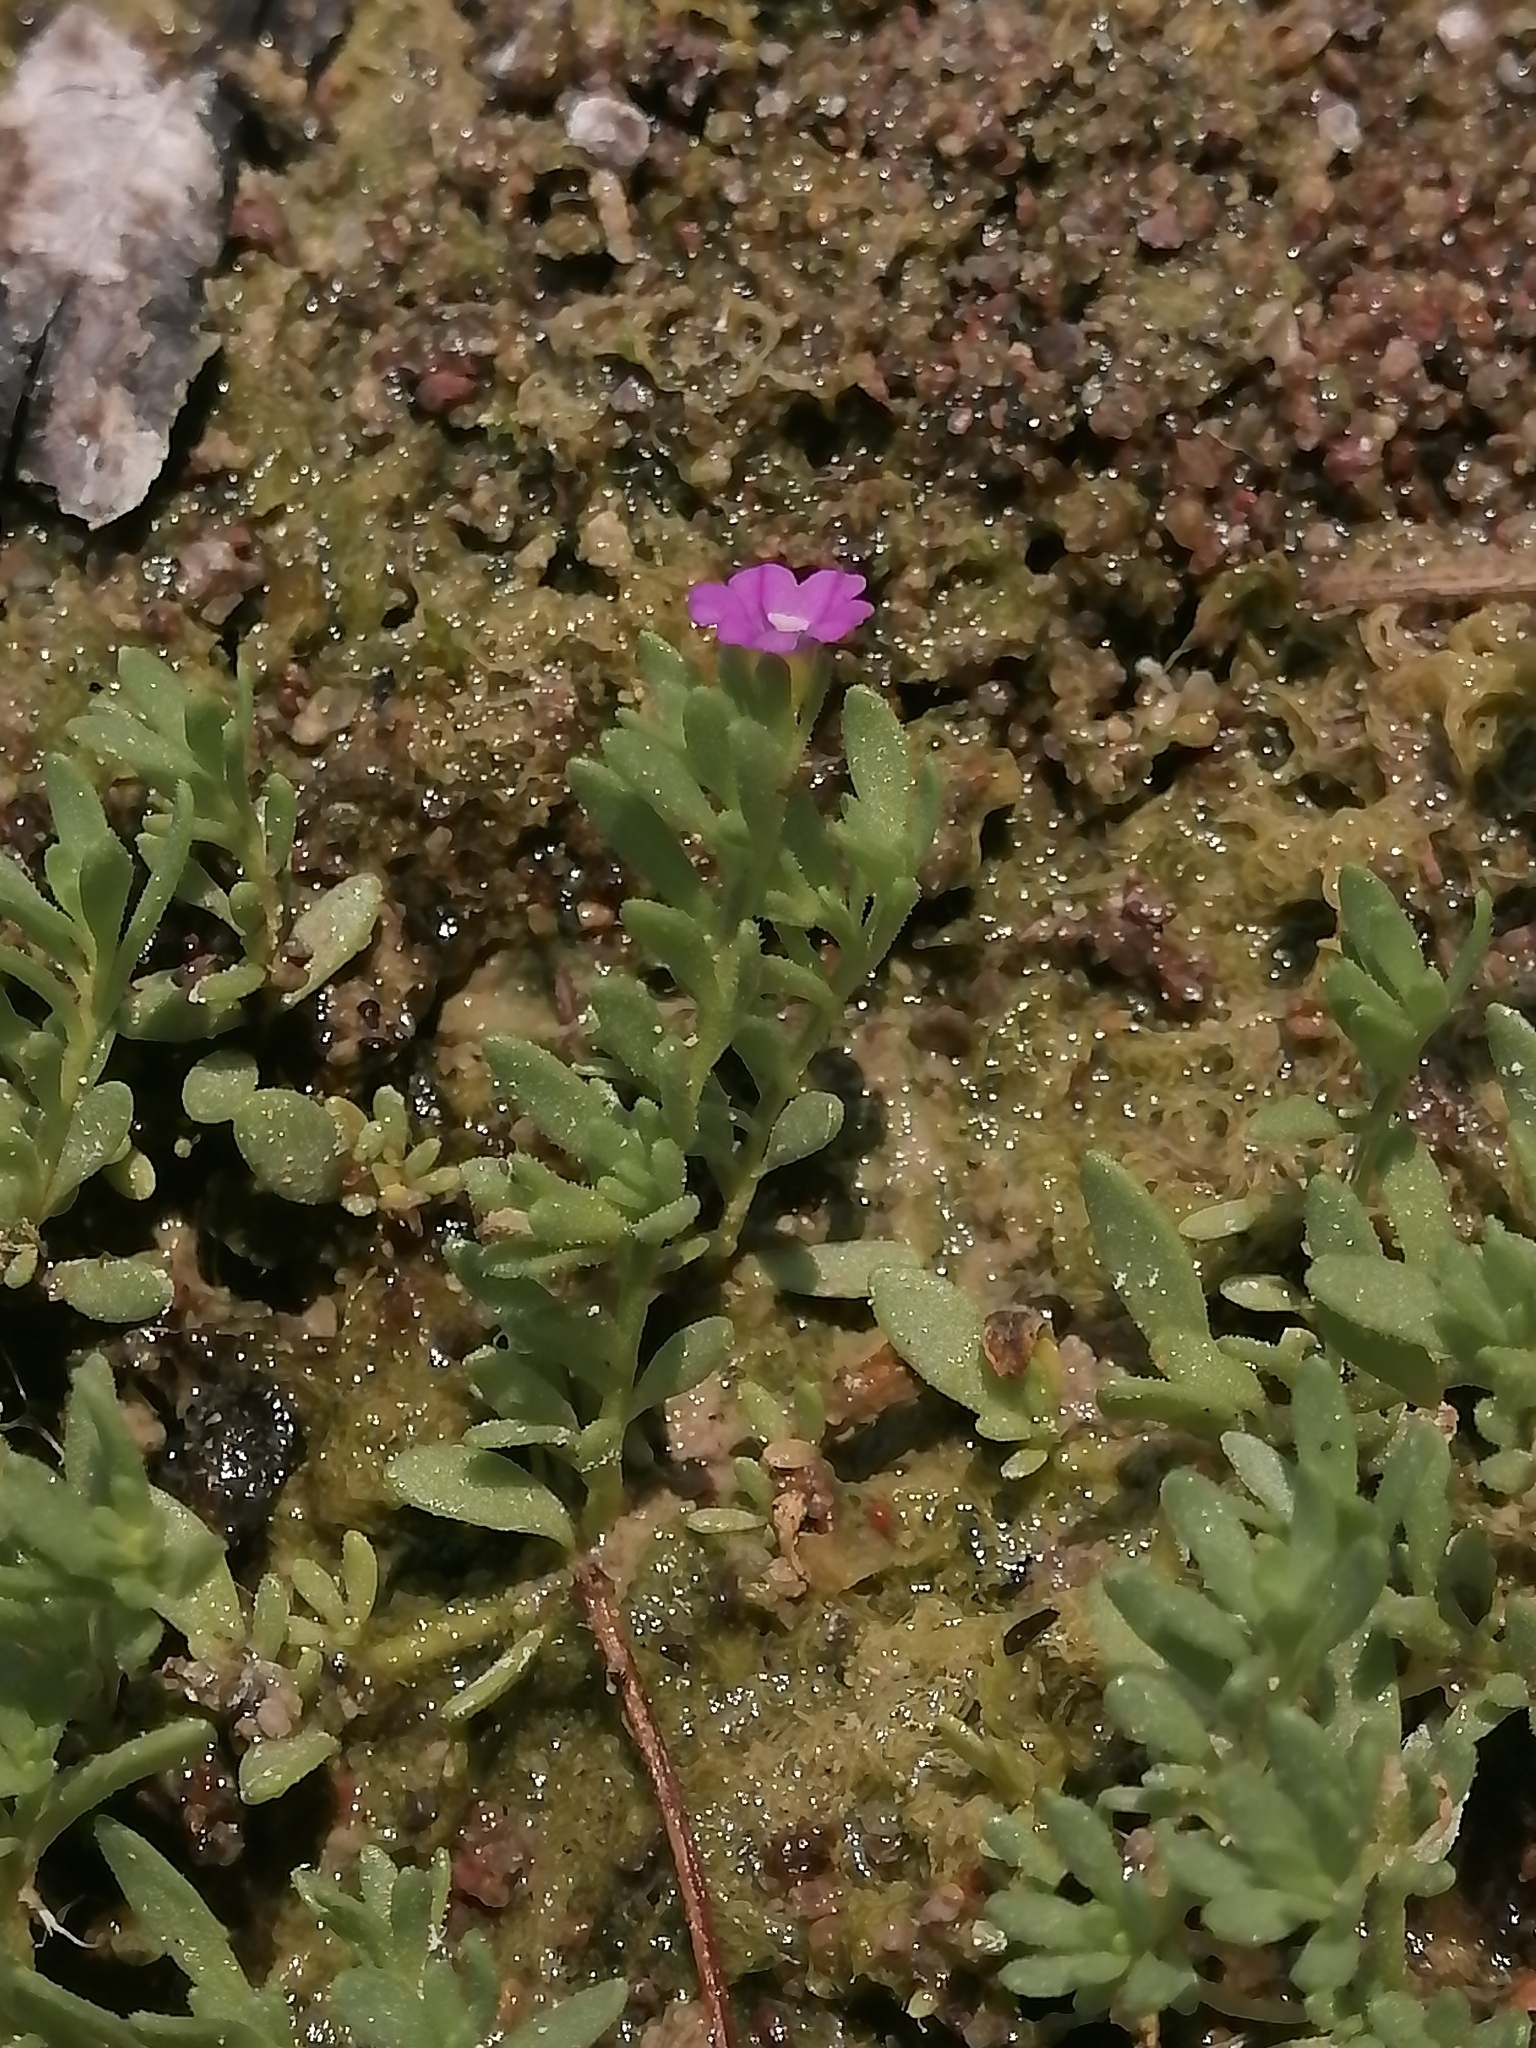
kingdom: Plantae
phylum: Tracheophyta
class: Magnoliopsida
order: Solanales
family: Solanaceae
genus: Calibrachoa
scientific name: Calibrachoa parviflora
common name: Seaside petunia
